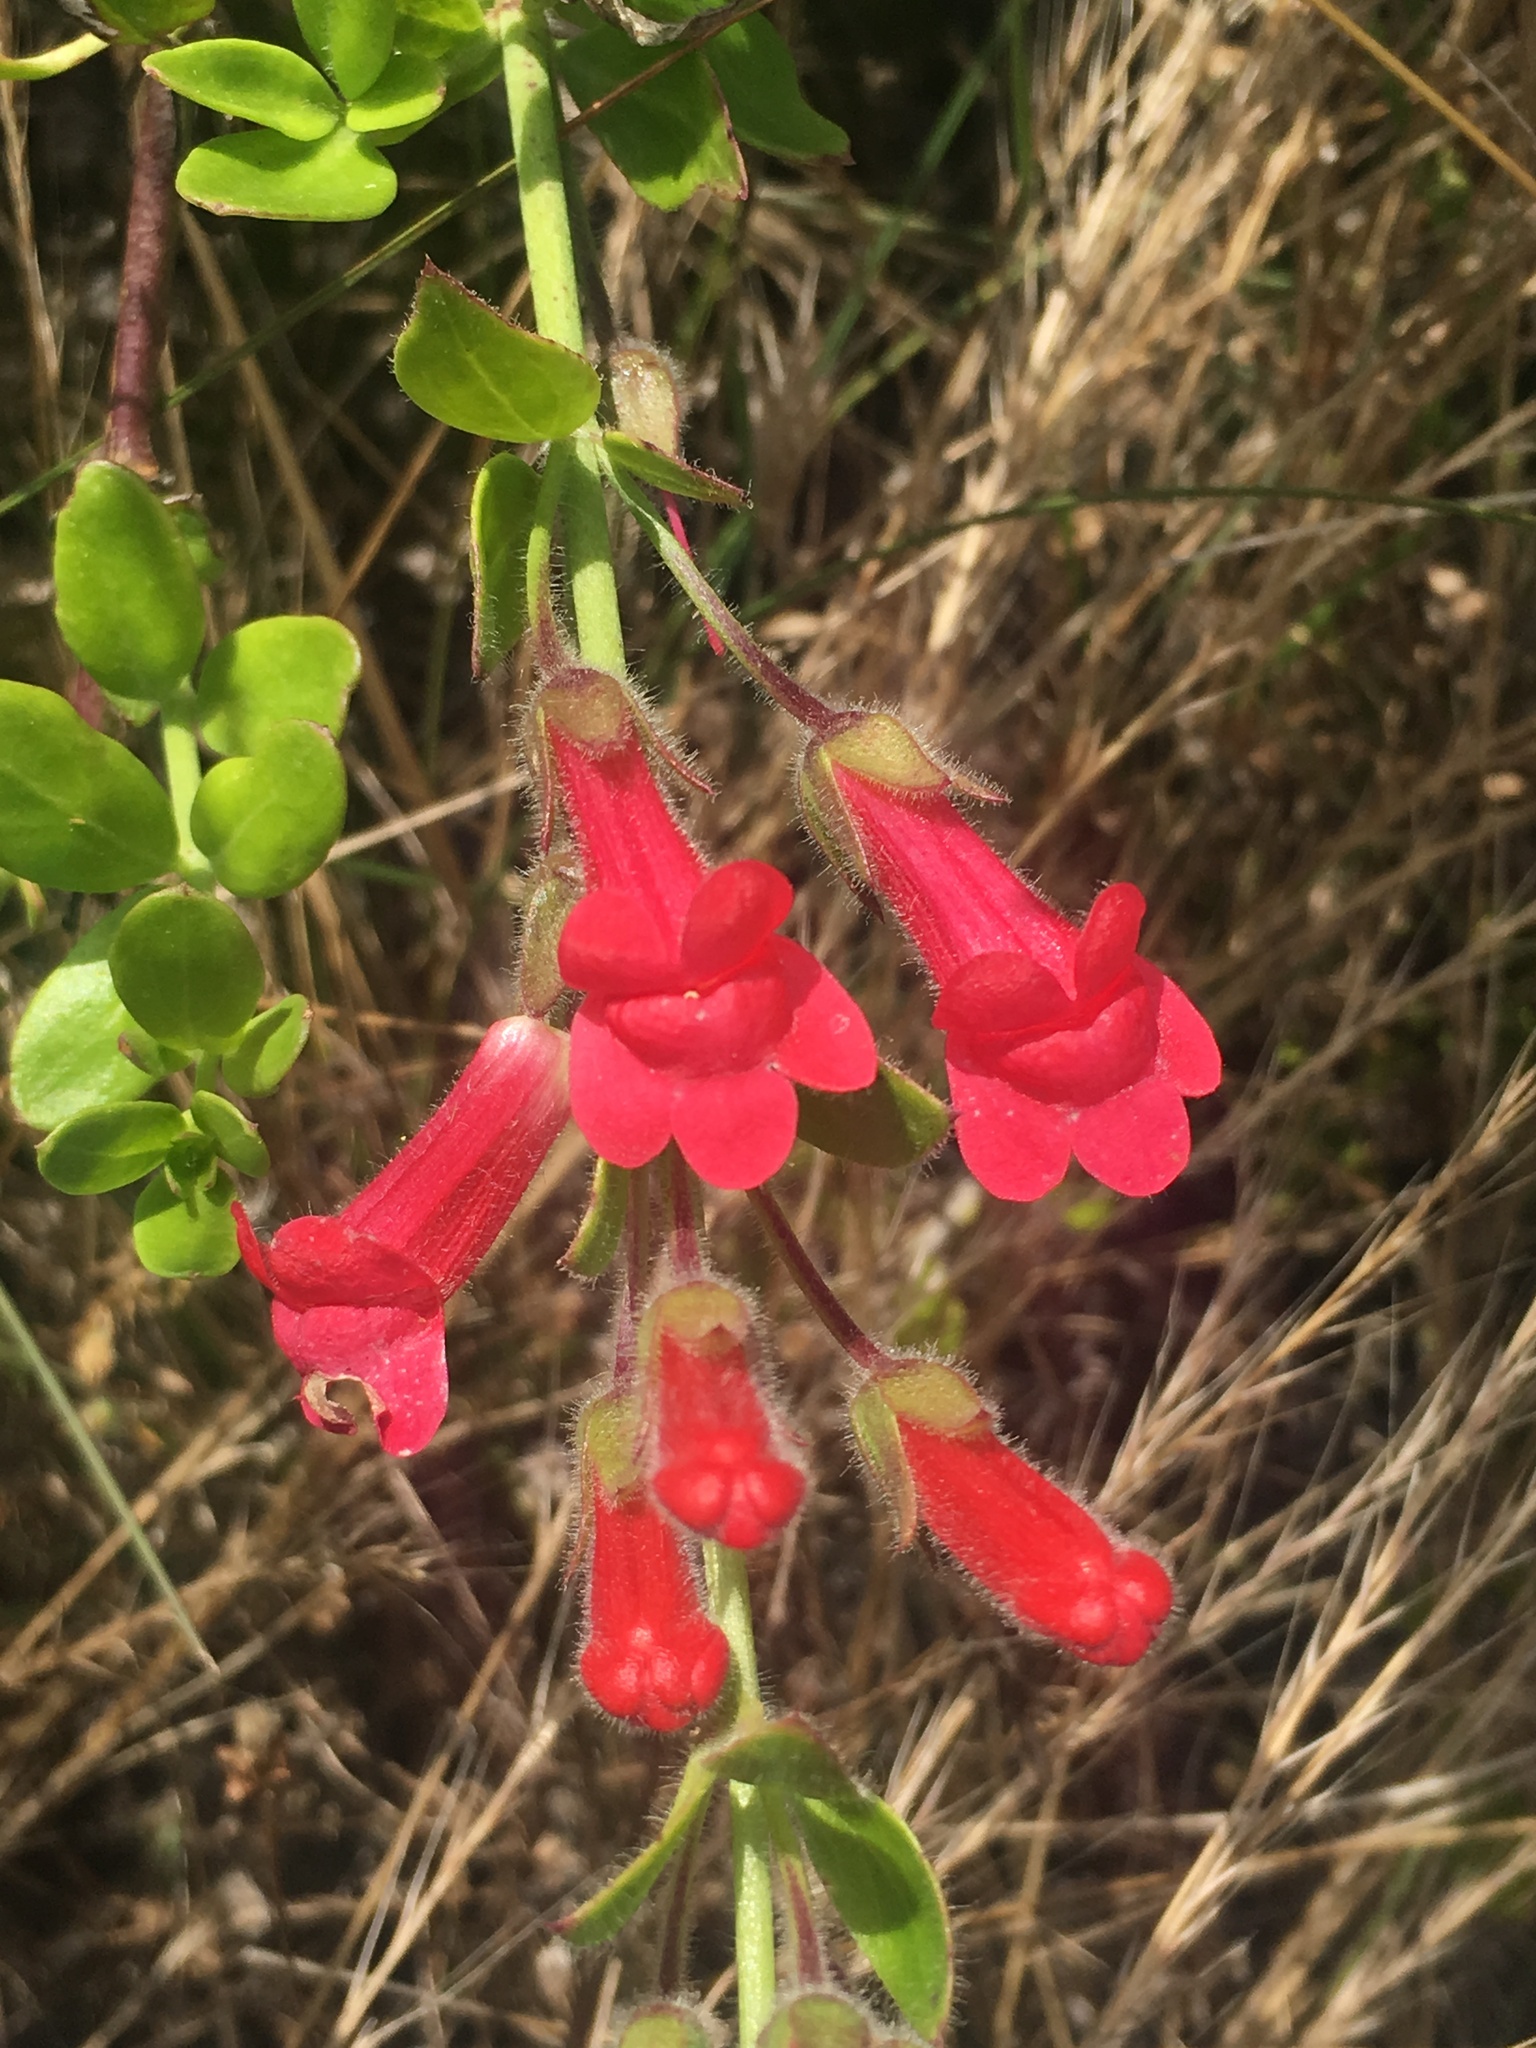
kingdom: Plantae
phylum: Tracheophyta
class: Magnoliopsida
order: Lamiales
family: Plantaginaceae
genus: Gambelia
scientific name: Gambelia speciosa
